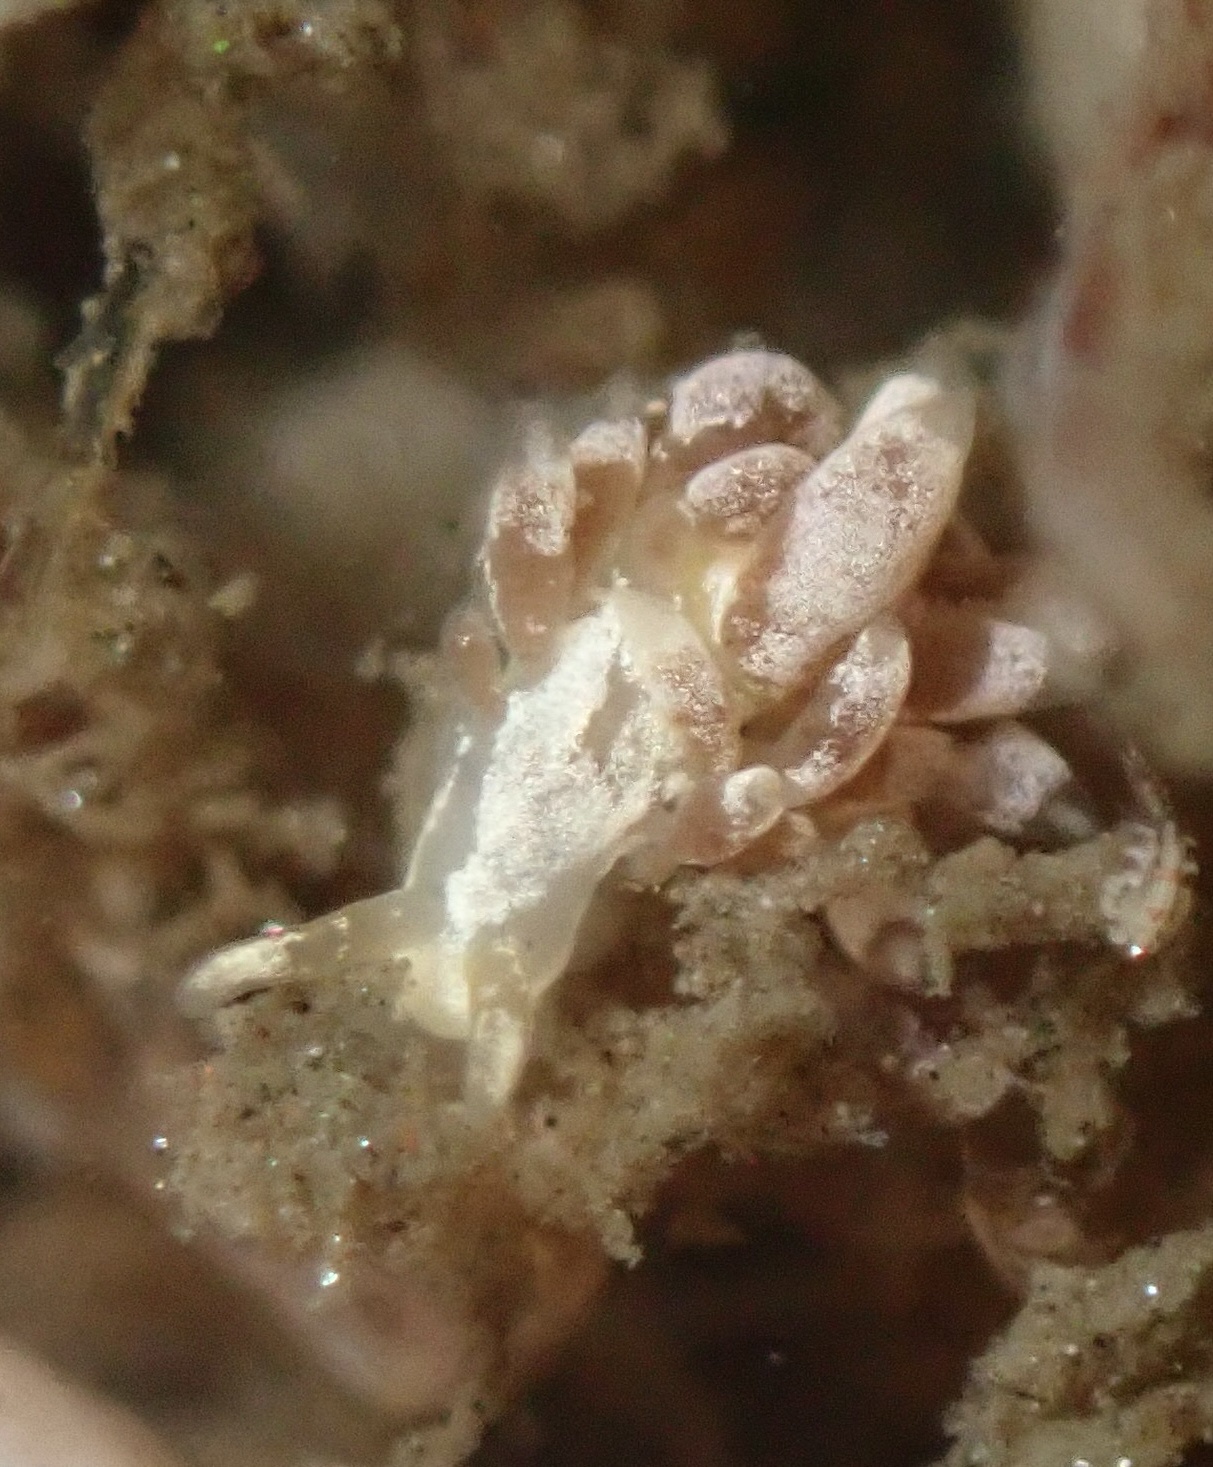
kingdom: Animalia
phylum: Mollusca
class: Gastropoda
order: Nudibranchia
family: Trinchesiidae
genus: Trinchesia
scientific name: Trinchesia albocrusta
